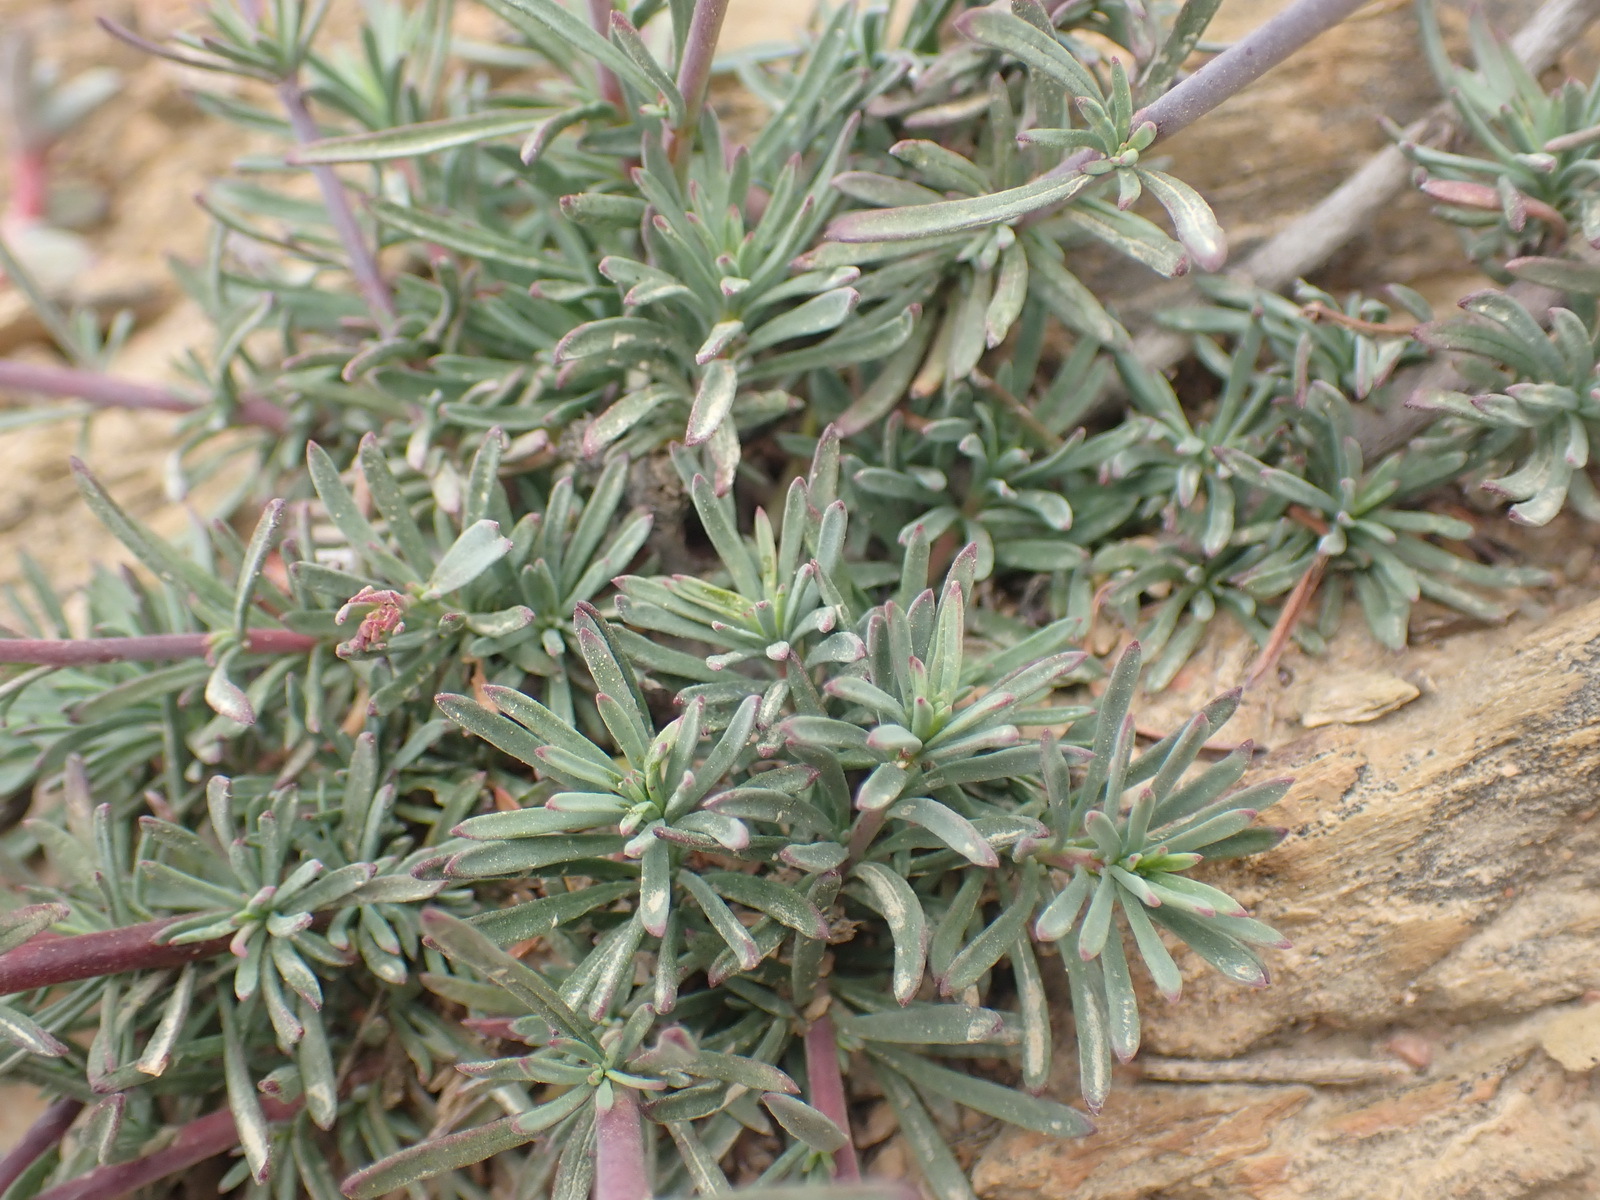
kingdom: Plantae
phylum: Tracheophyta
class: Magnoliopsida
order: Malvales
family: Malvaceae
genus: Hermannia
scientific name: Hermannia filifolia
